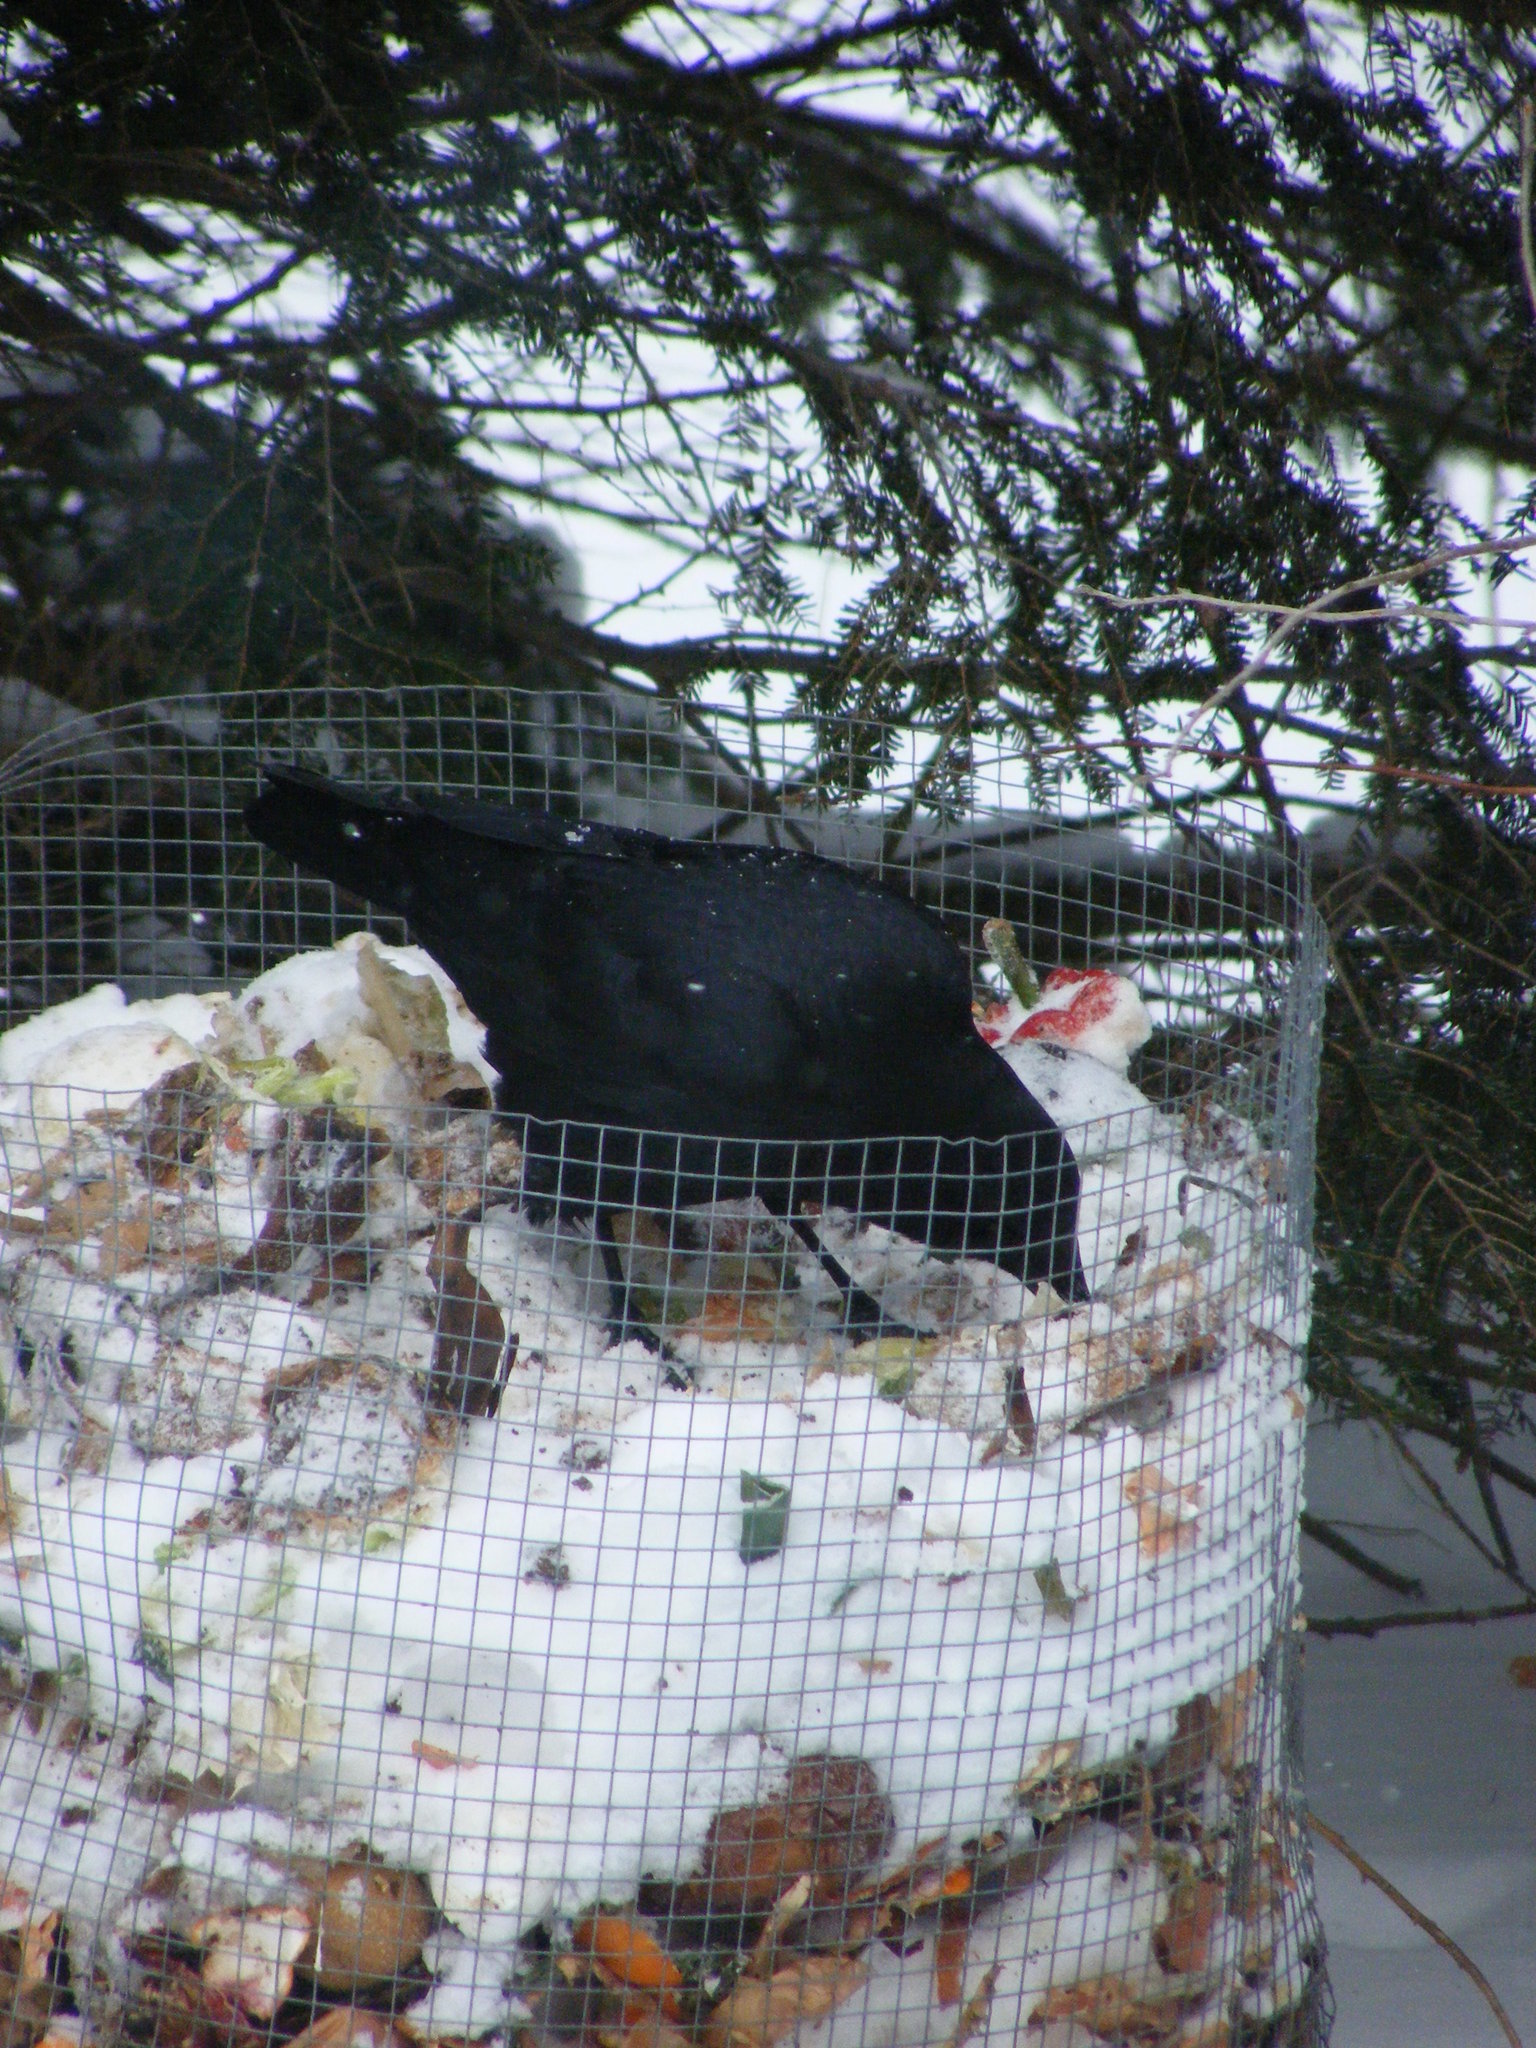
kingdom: Animalia
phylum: Chordata
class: Aves
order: Passeriformes
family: Corvidae
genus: Corvus
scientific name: Corvus brachyrhynchos
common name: American crow
